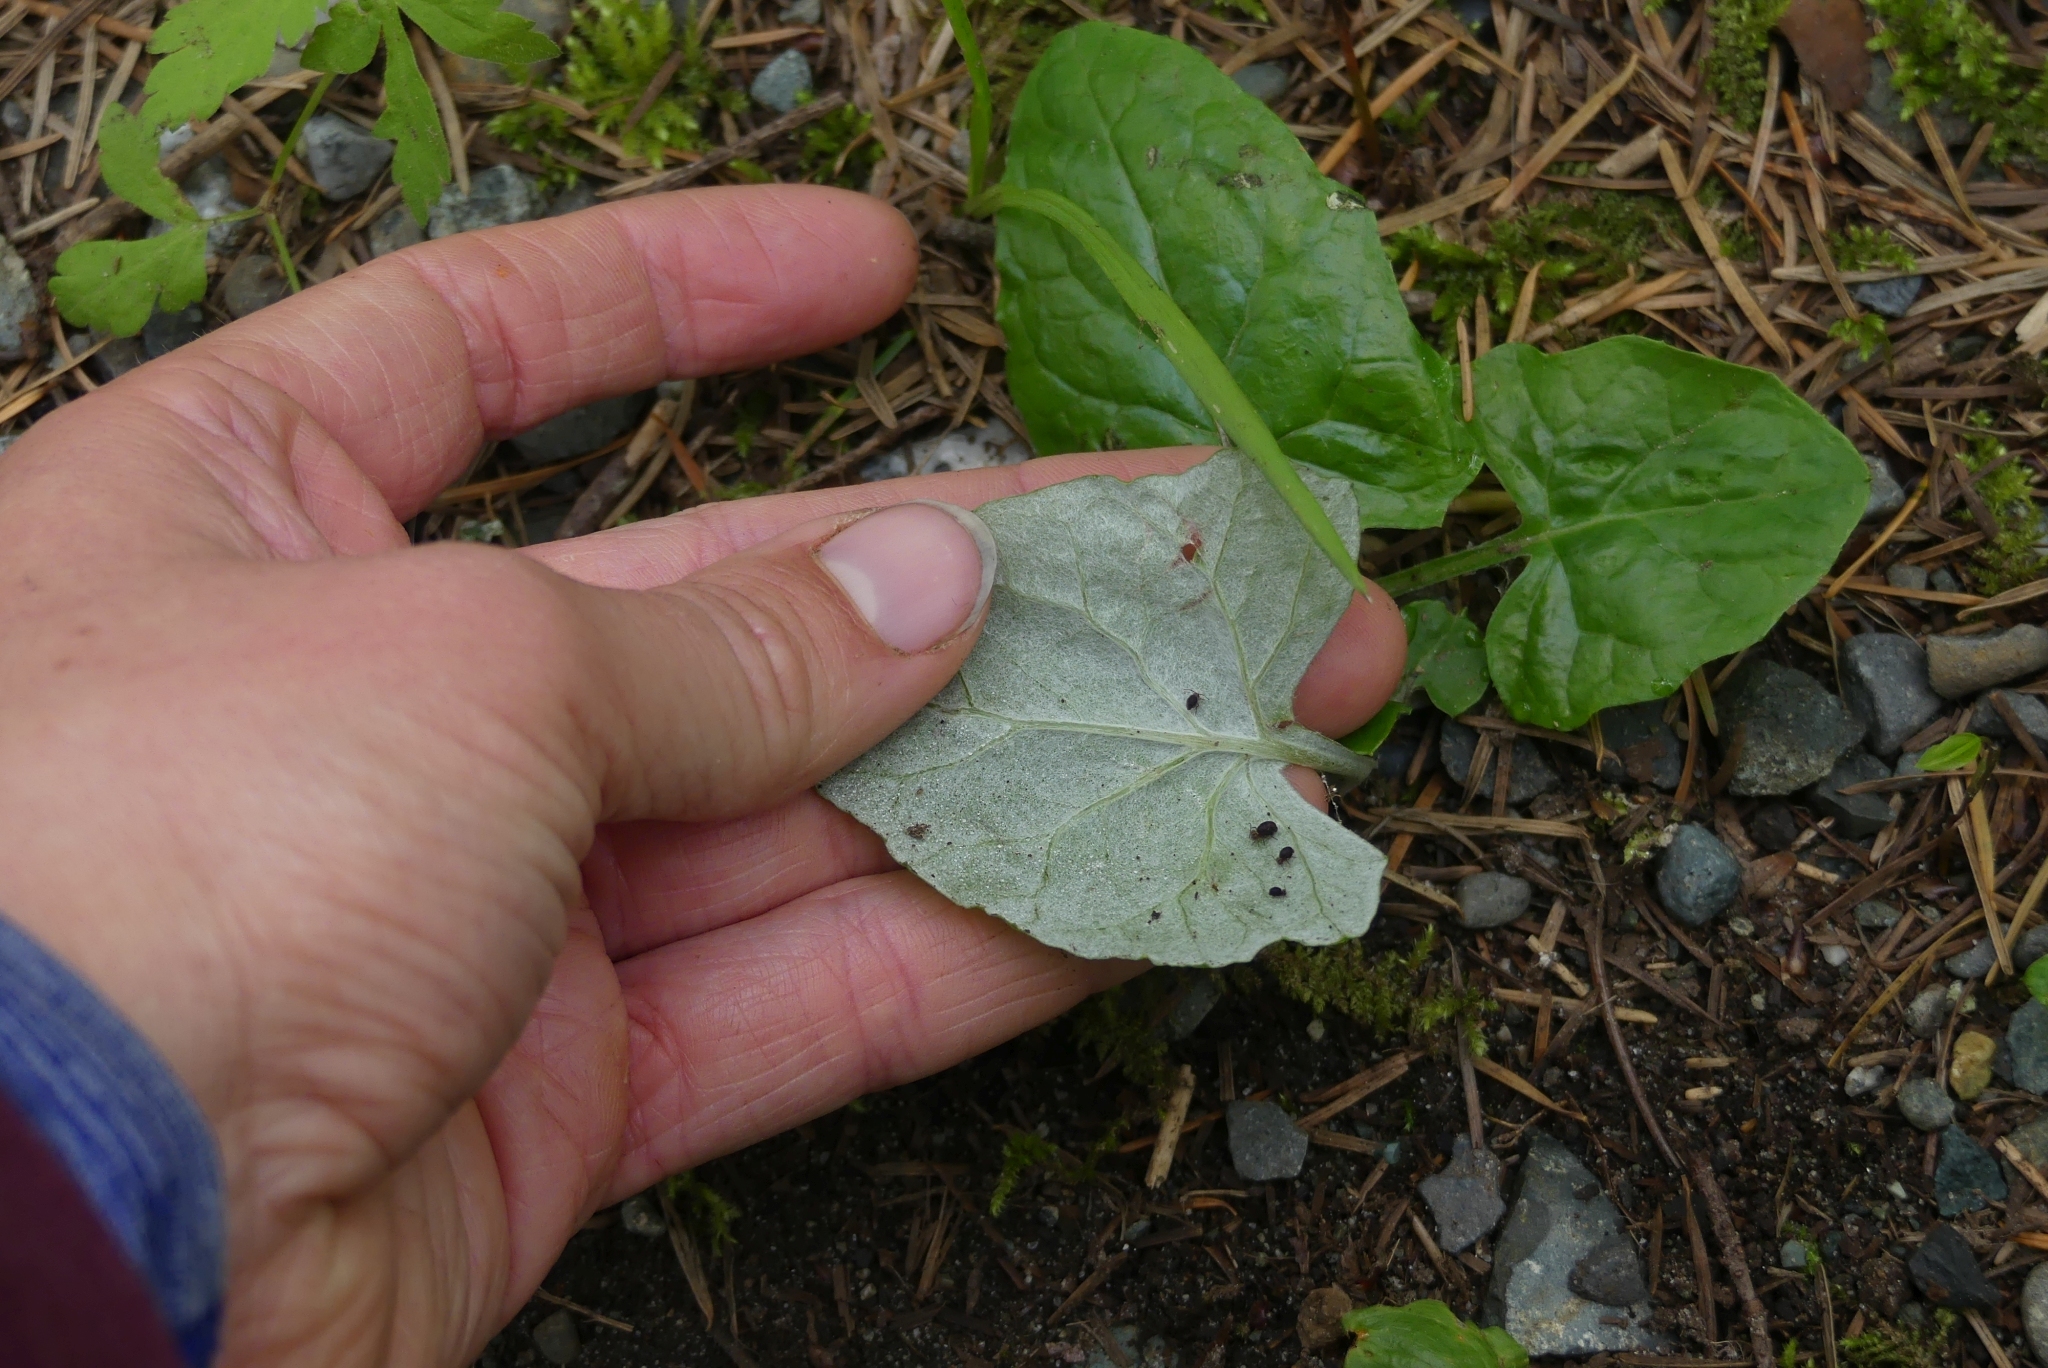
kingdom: Plantae
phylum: Tracheophyta
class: Magnoliopsida
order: Asterales
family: Asteraceae
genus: Adenocaulon
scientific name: Adenocaulon bicolor
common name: Trailplant
